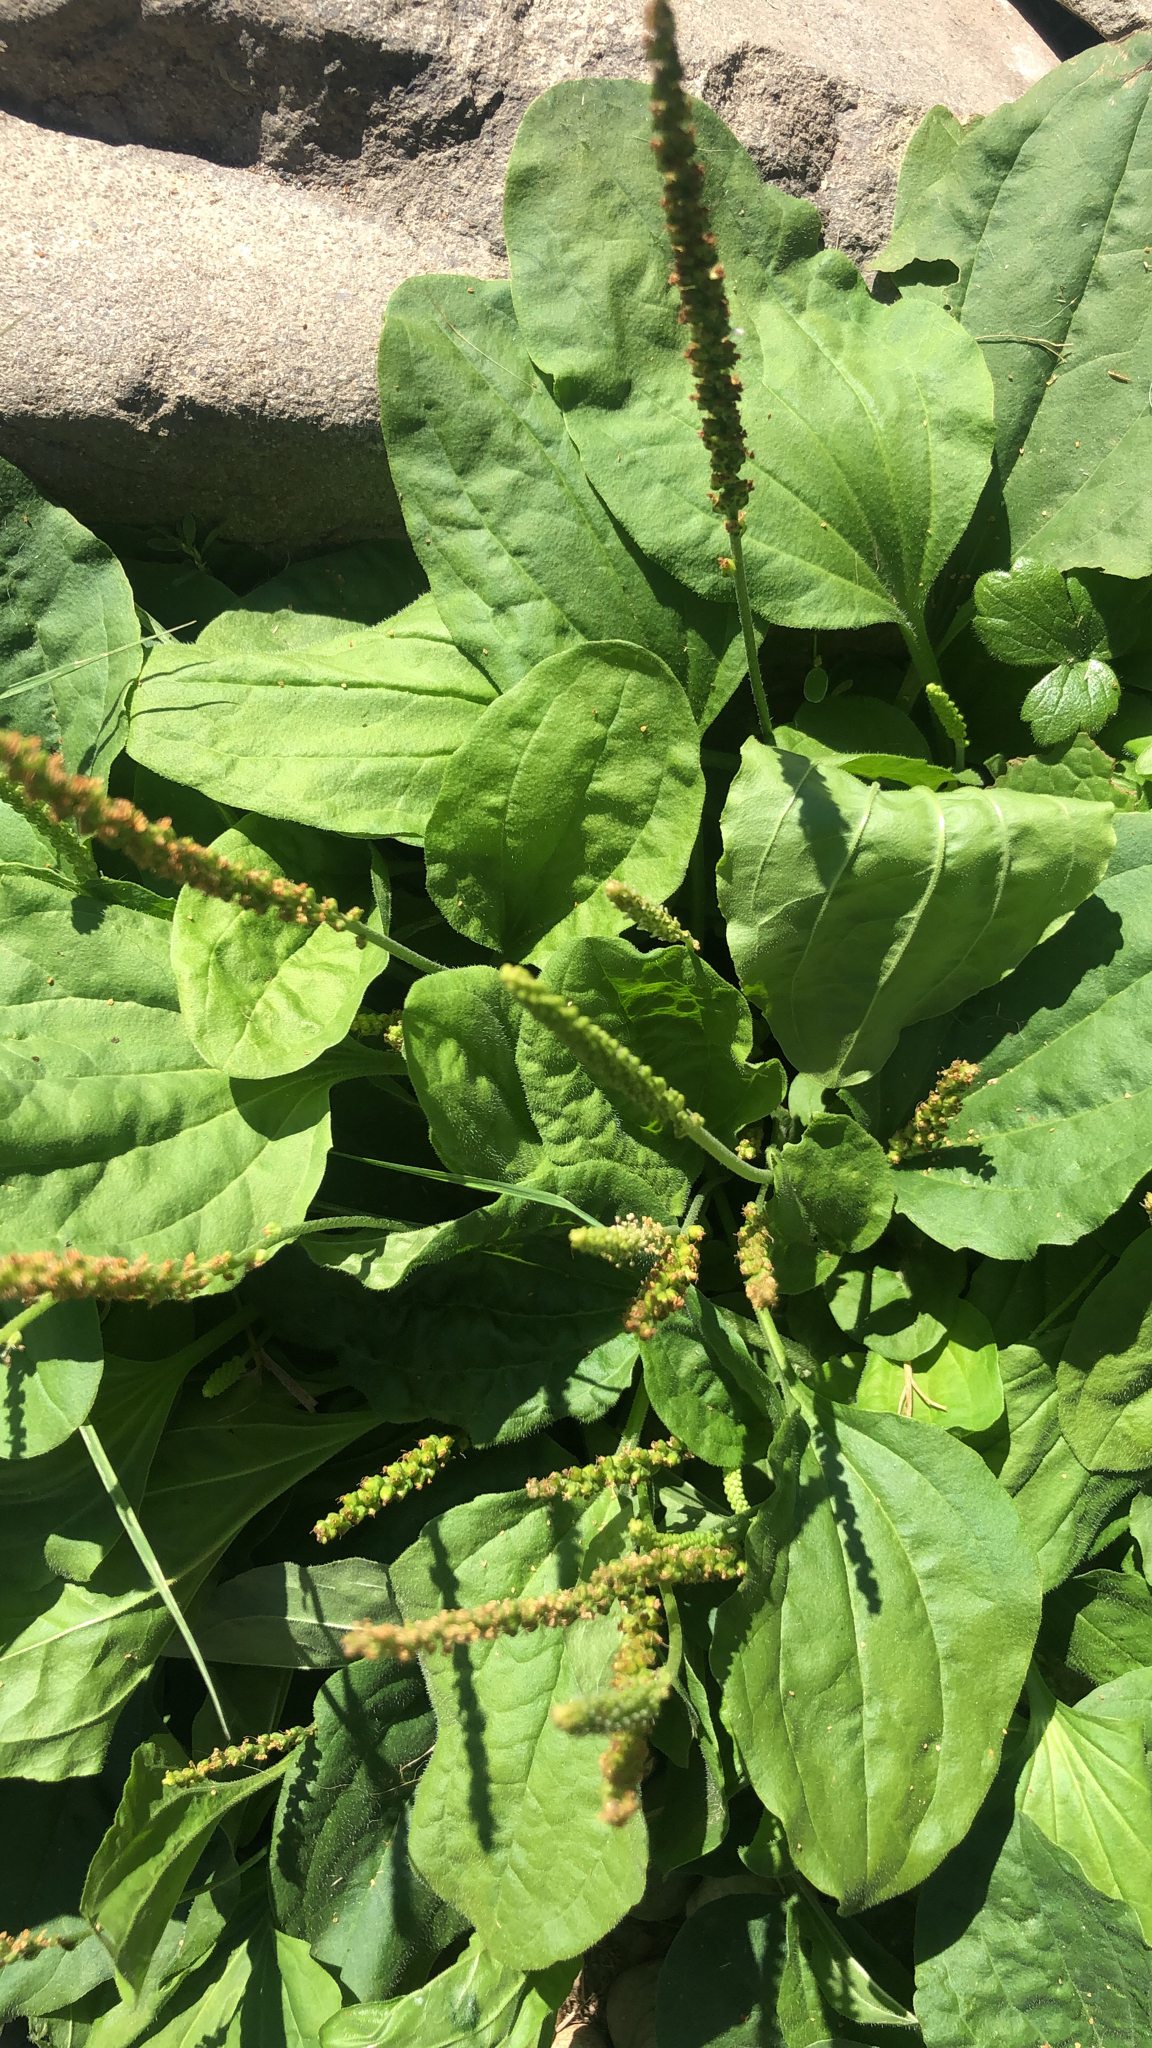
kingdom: Plantae
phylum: Tracheophyta
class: Magnoliopsida
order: Lamiales
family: Plantaginaceae
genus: Plantago
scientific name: Plantago major
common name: Common plantain
